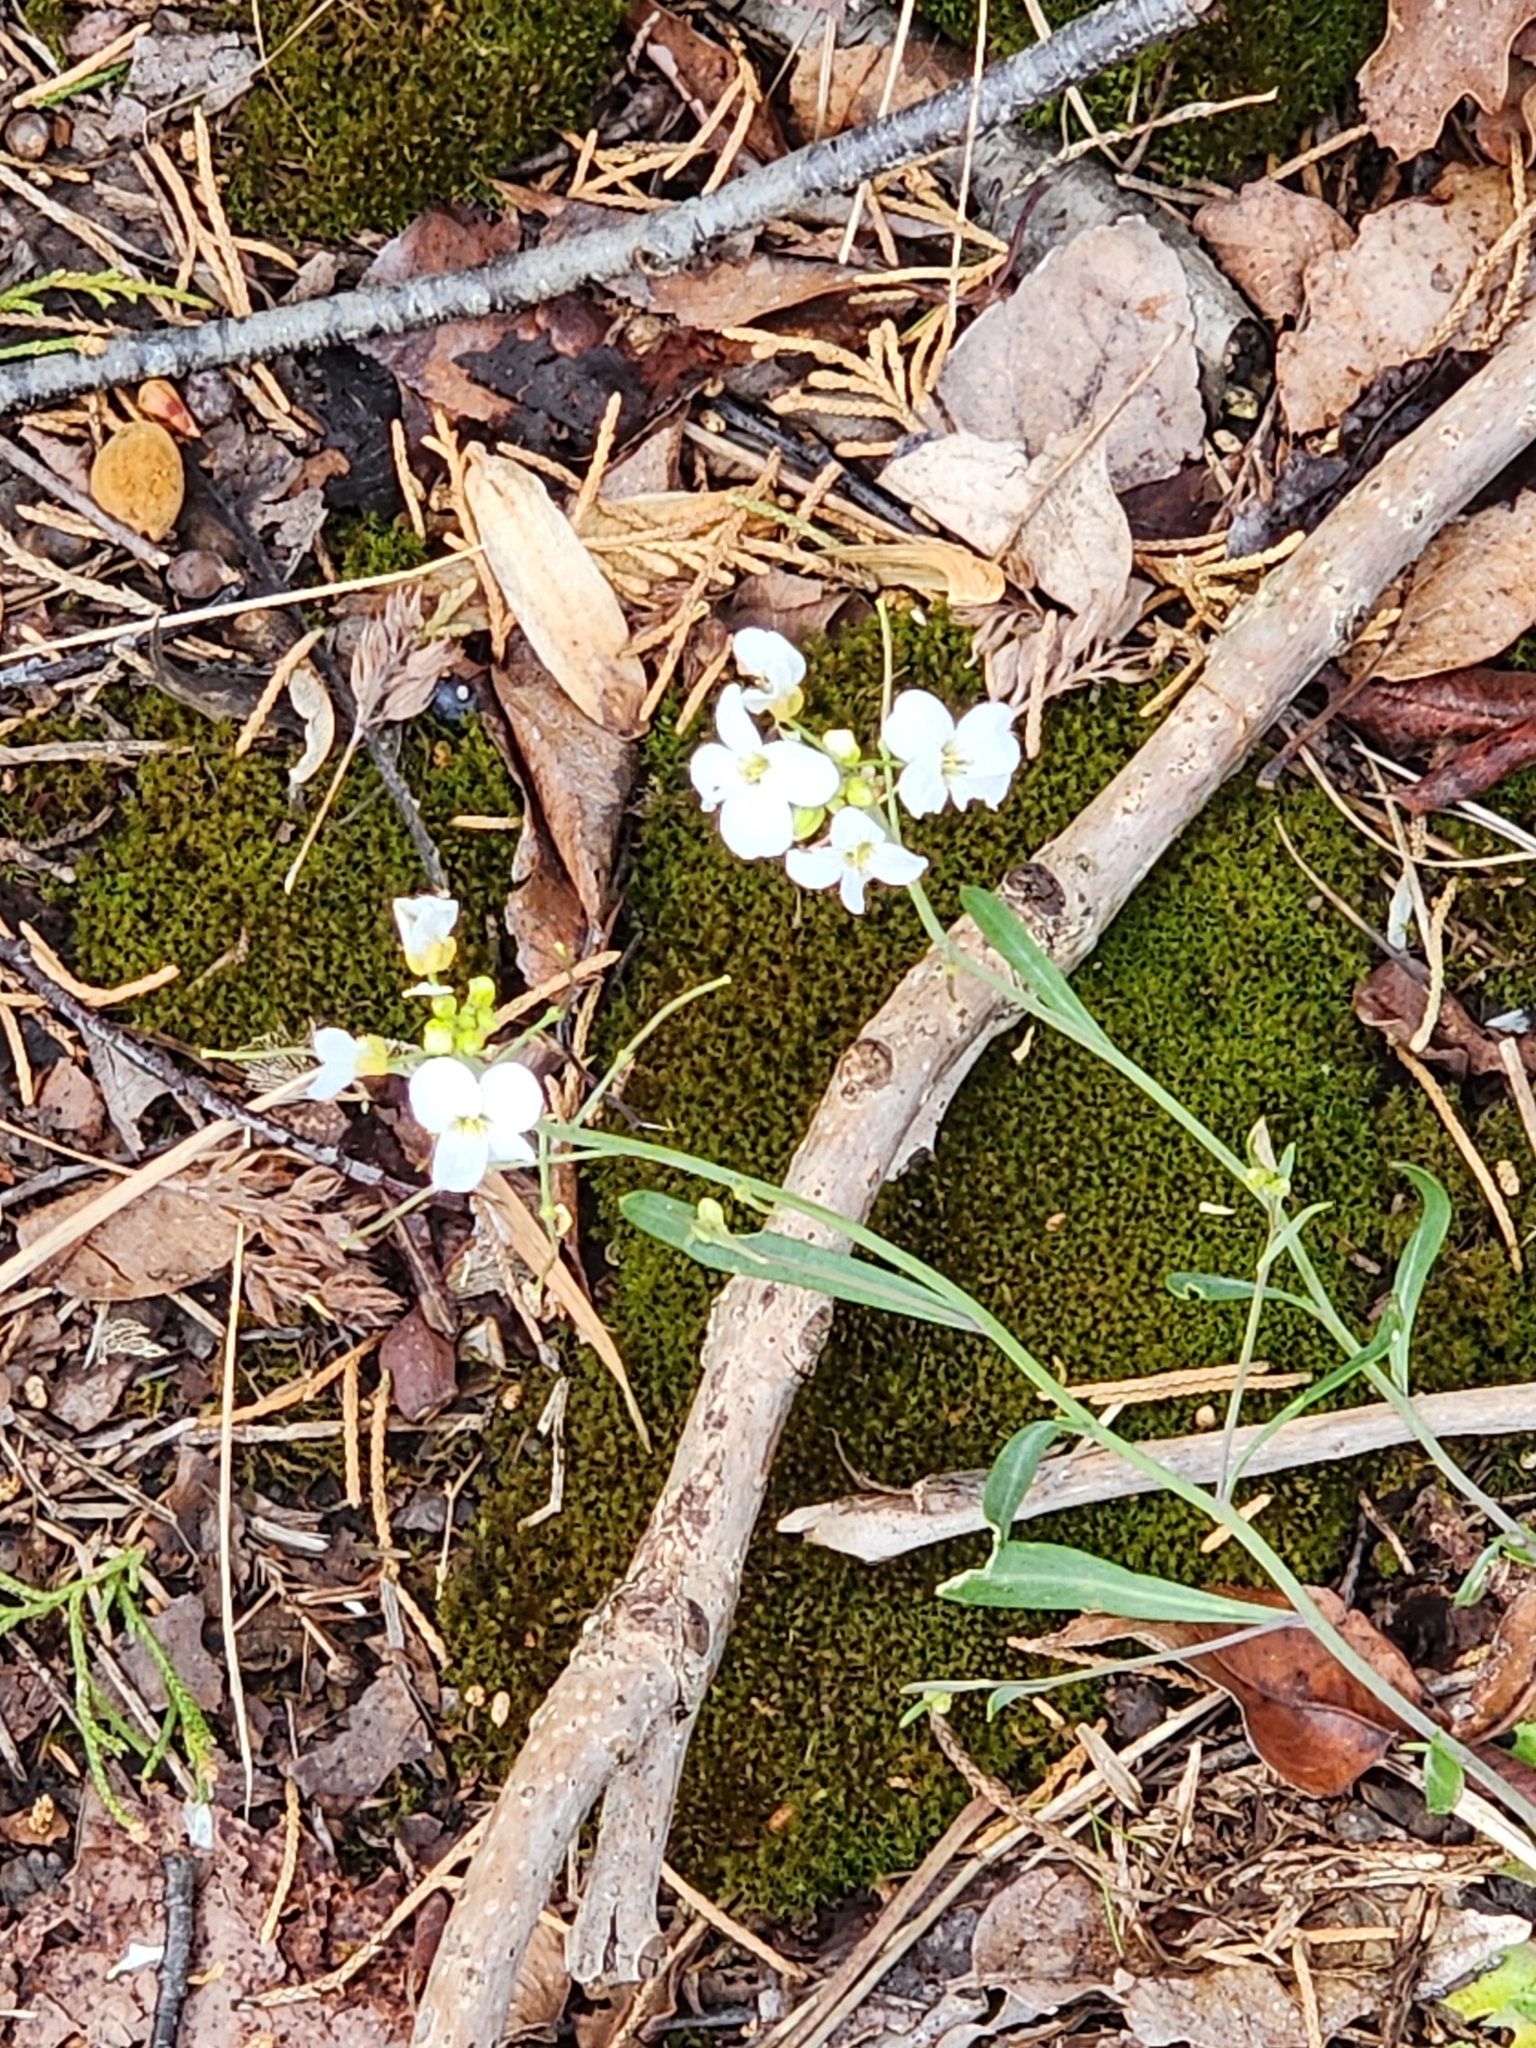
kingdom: Plantae
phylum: Tracheophyta
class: Magnoliopsida
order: Brassicales
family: Brassicaceae
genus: Arabidopsis
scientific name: Arabidopsis lyrata
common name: Lyrate rockcress
